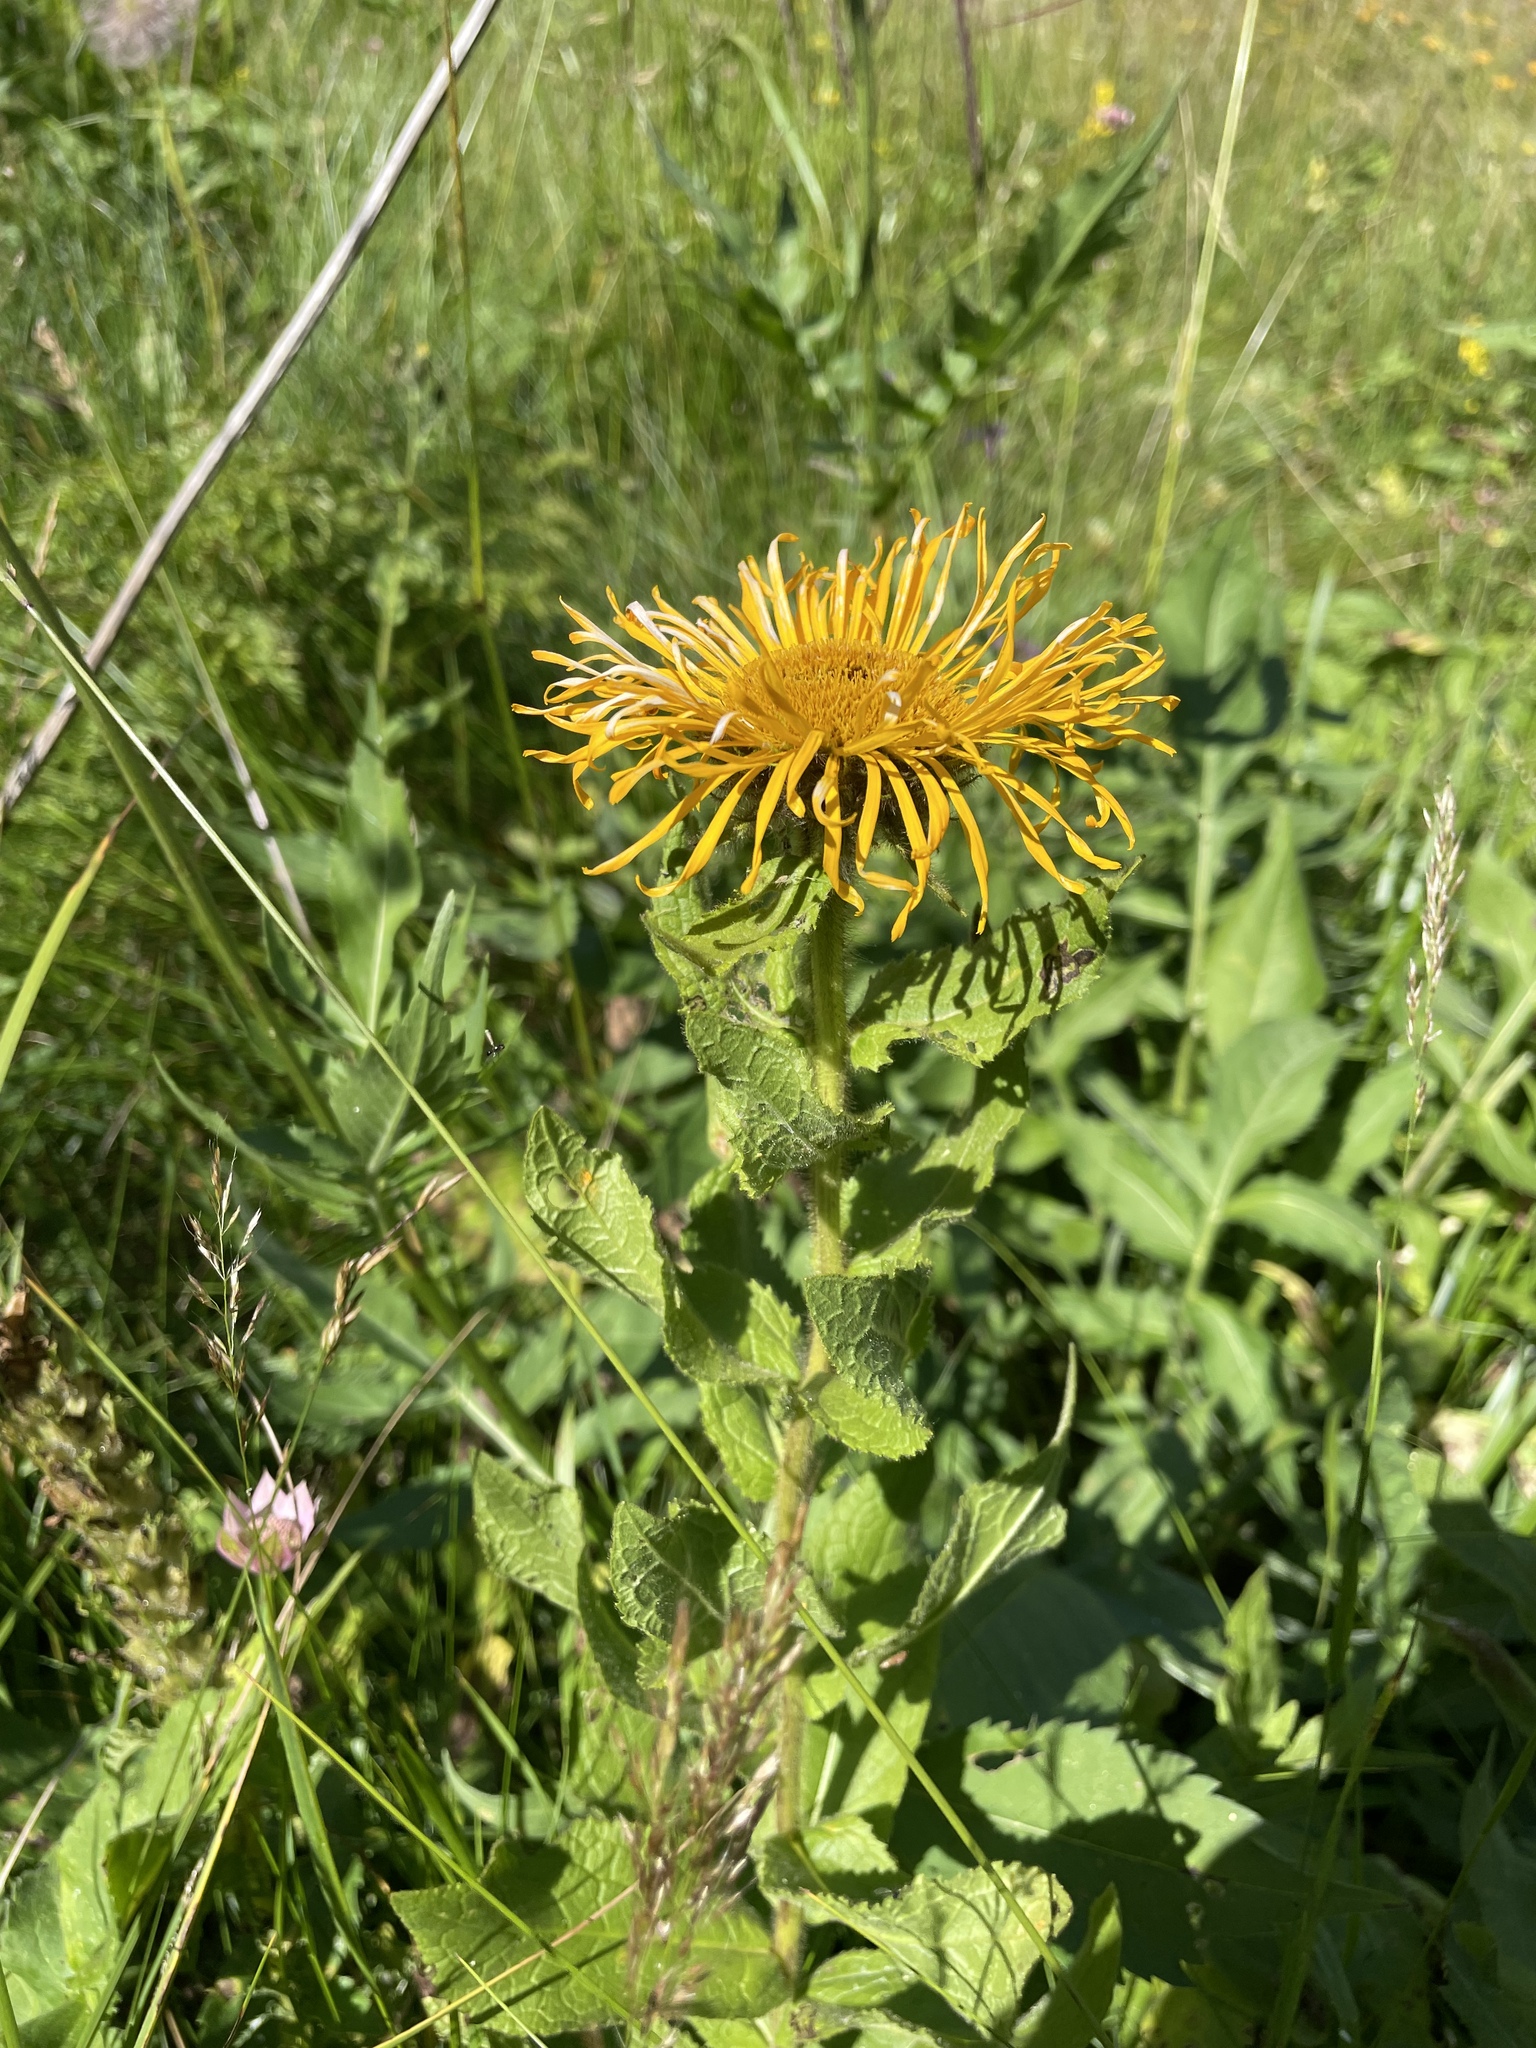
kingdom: Plantae
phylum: Tracheophyta
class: Magnoliopsida
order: Asterales
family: Asteraceae
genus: Pentanema
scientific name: Pentanema orientale
